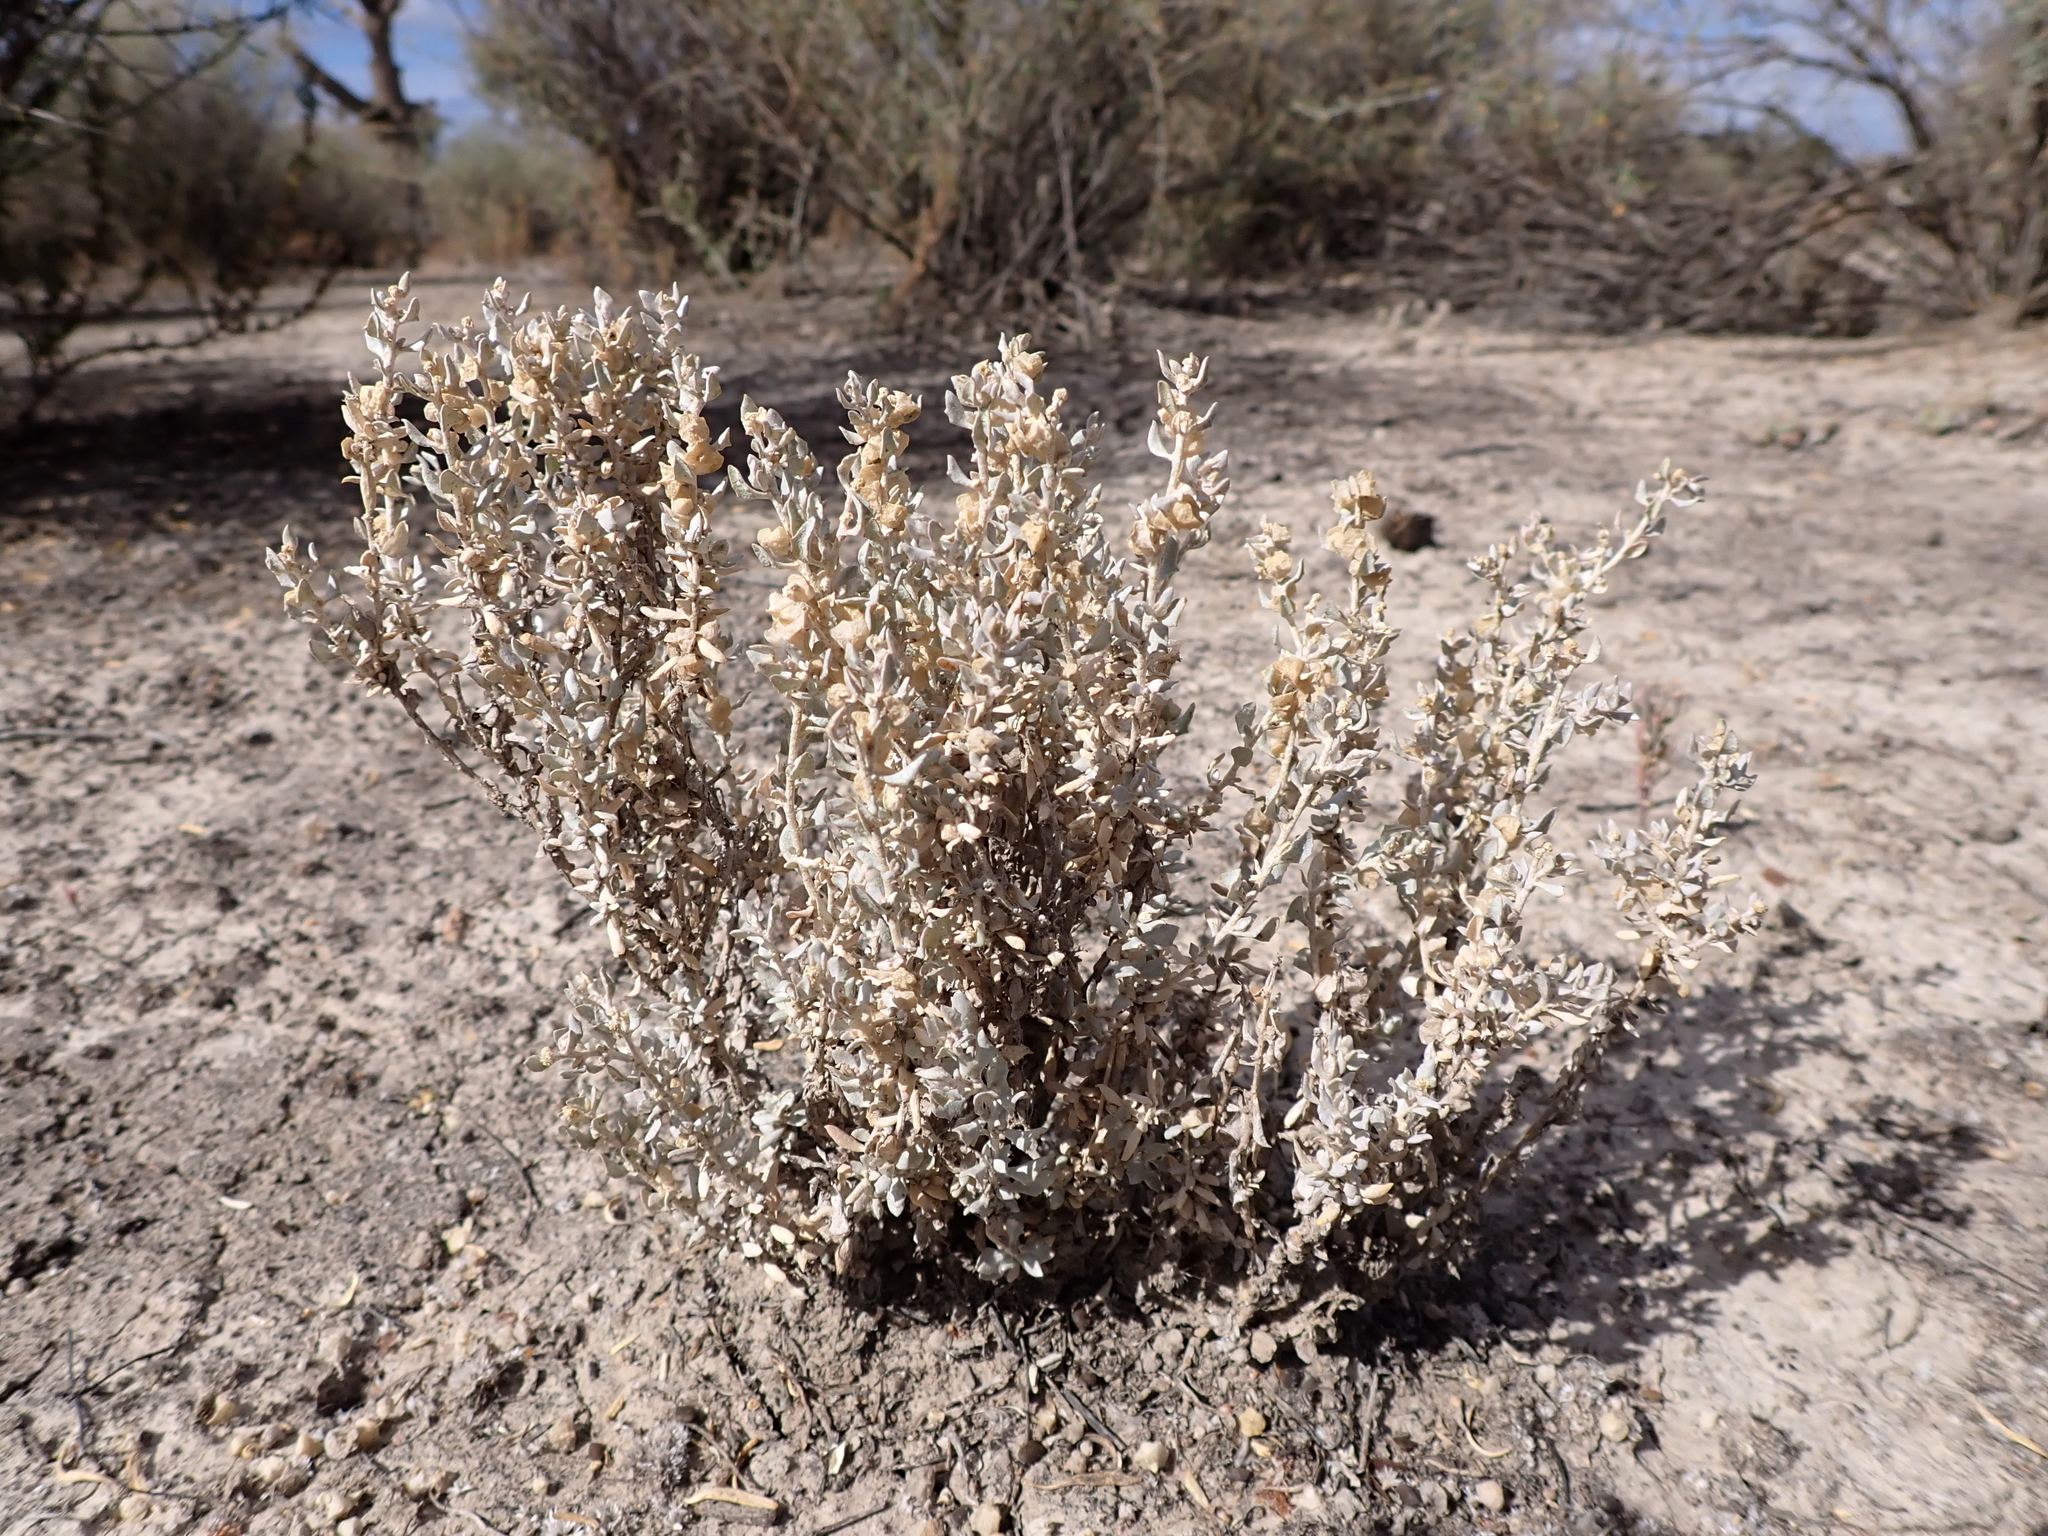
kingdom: Plantae
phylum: Tracheophyta
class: Magnoliopsida
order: Caryophyllales
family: Amaranthaceae
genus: Atriplex
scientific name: Atriplex lindleyi
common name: Lindley's saltbush
